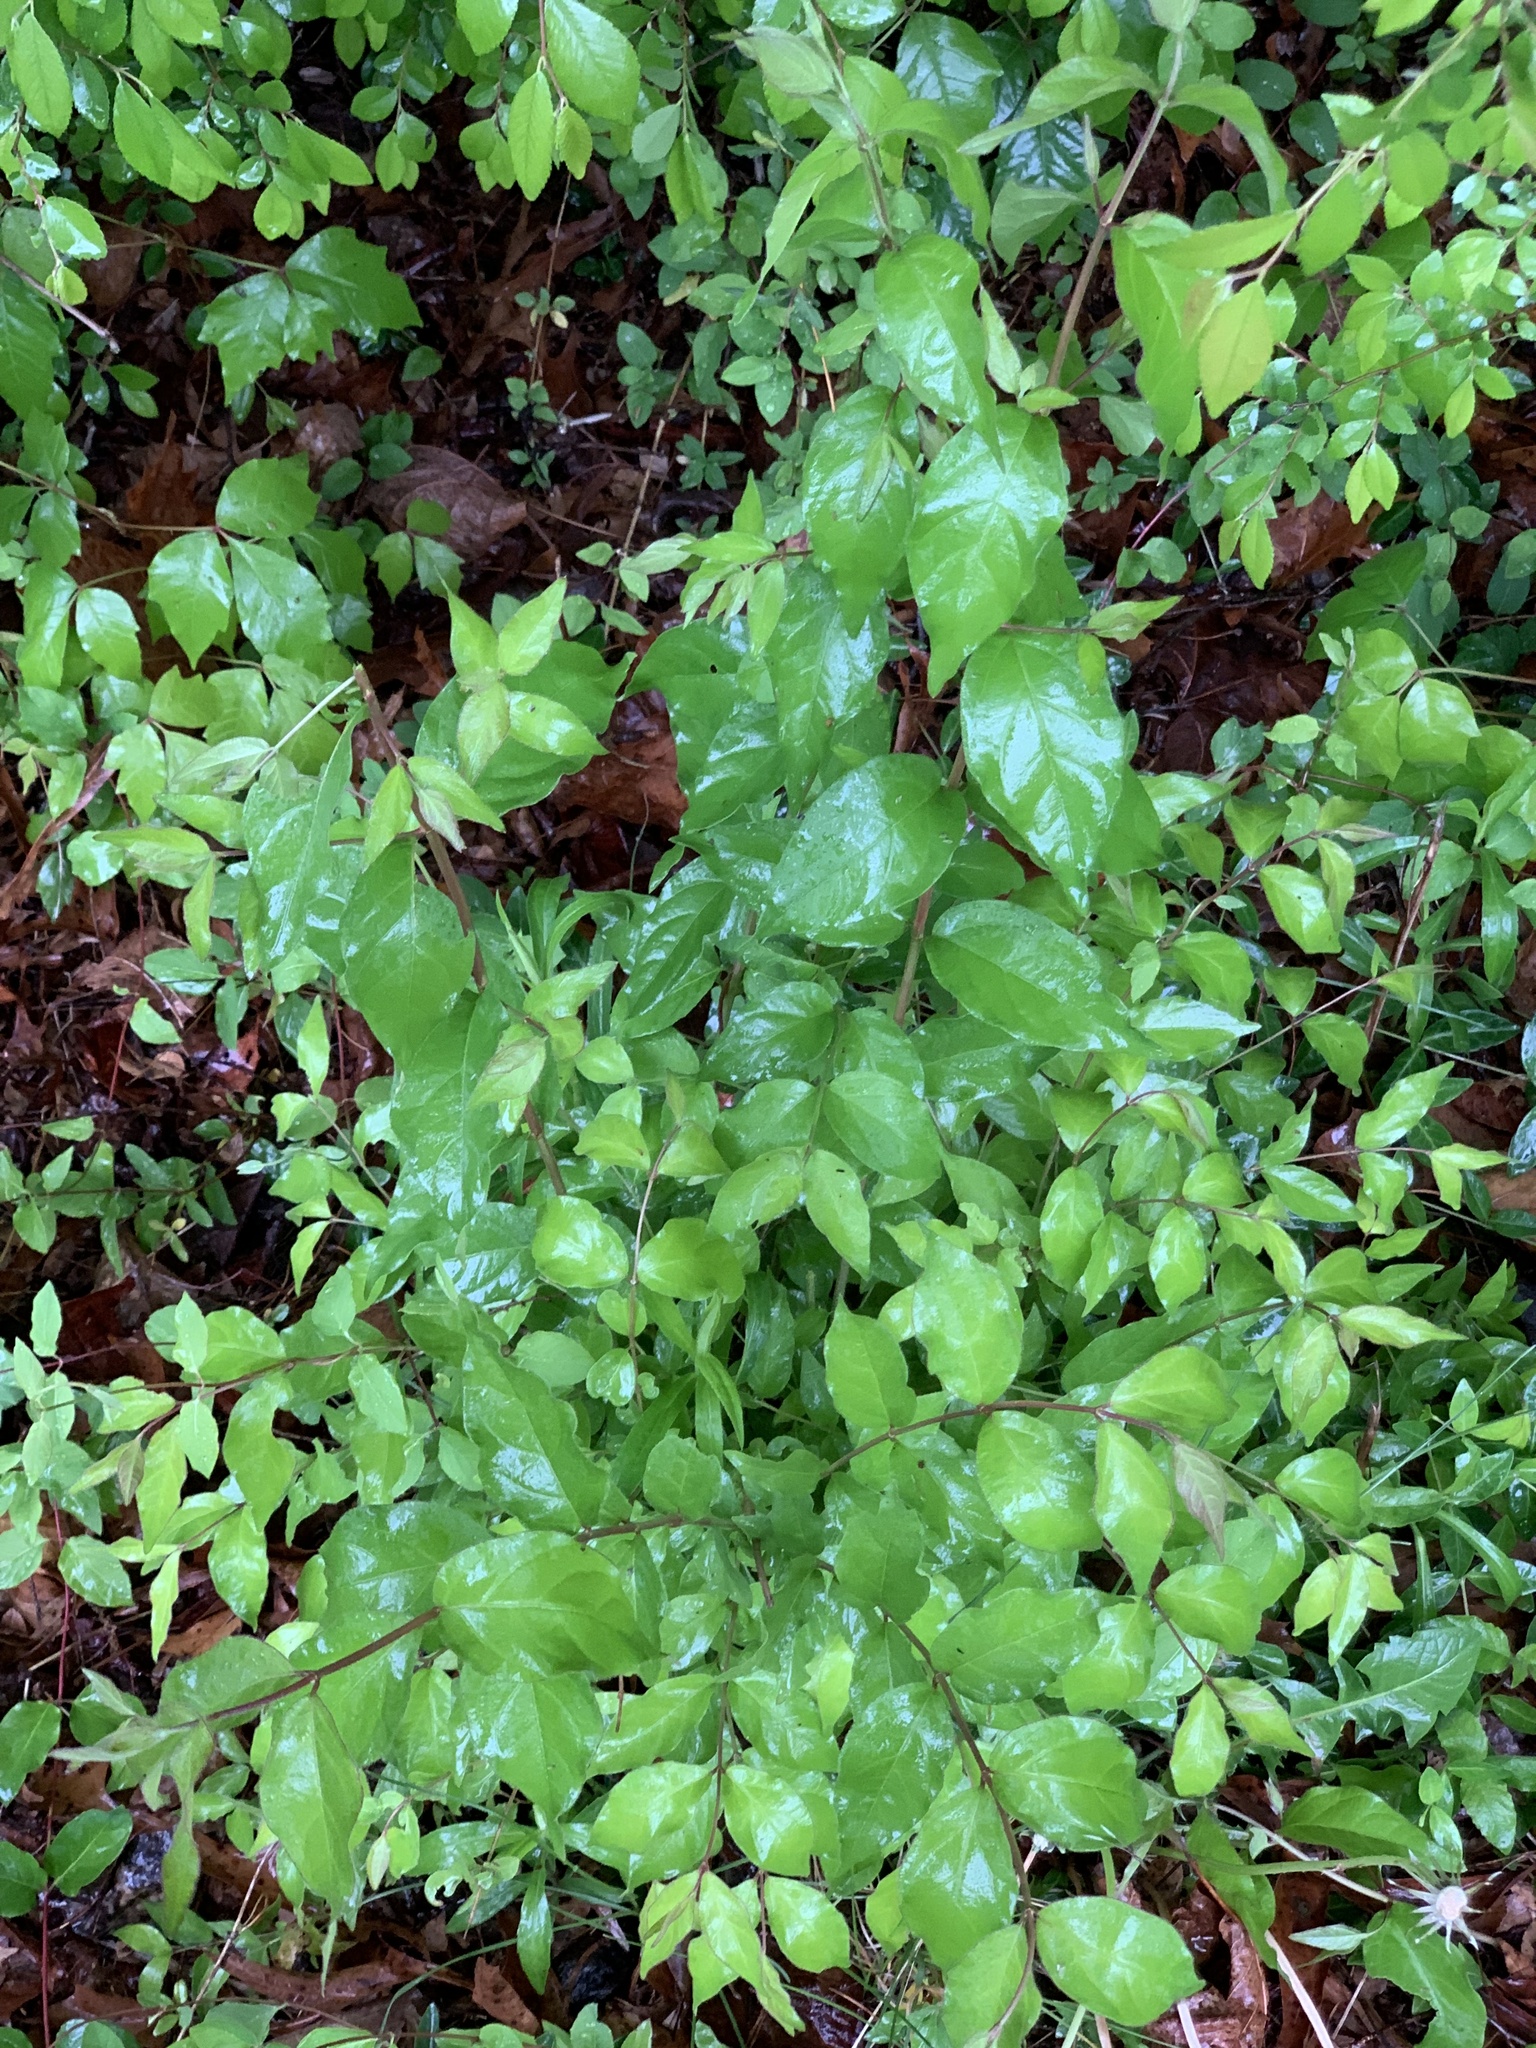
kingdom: Plantae
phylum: Tracheophyta
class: Magnoliopsida
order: Dipsacales
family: Caprifoliaceae
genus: Lonicera
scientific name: Lonicera maackii
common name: Amur honeysuckle
